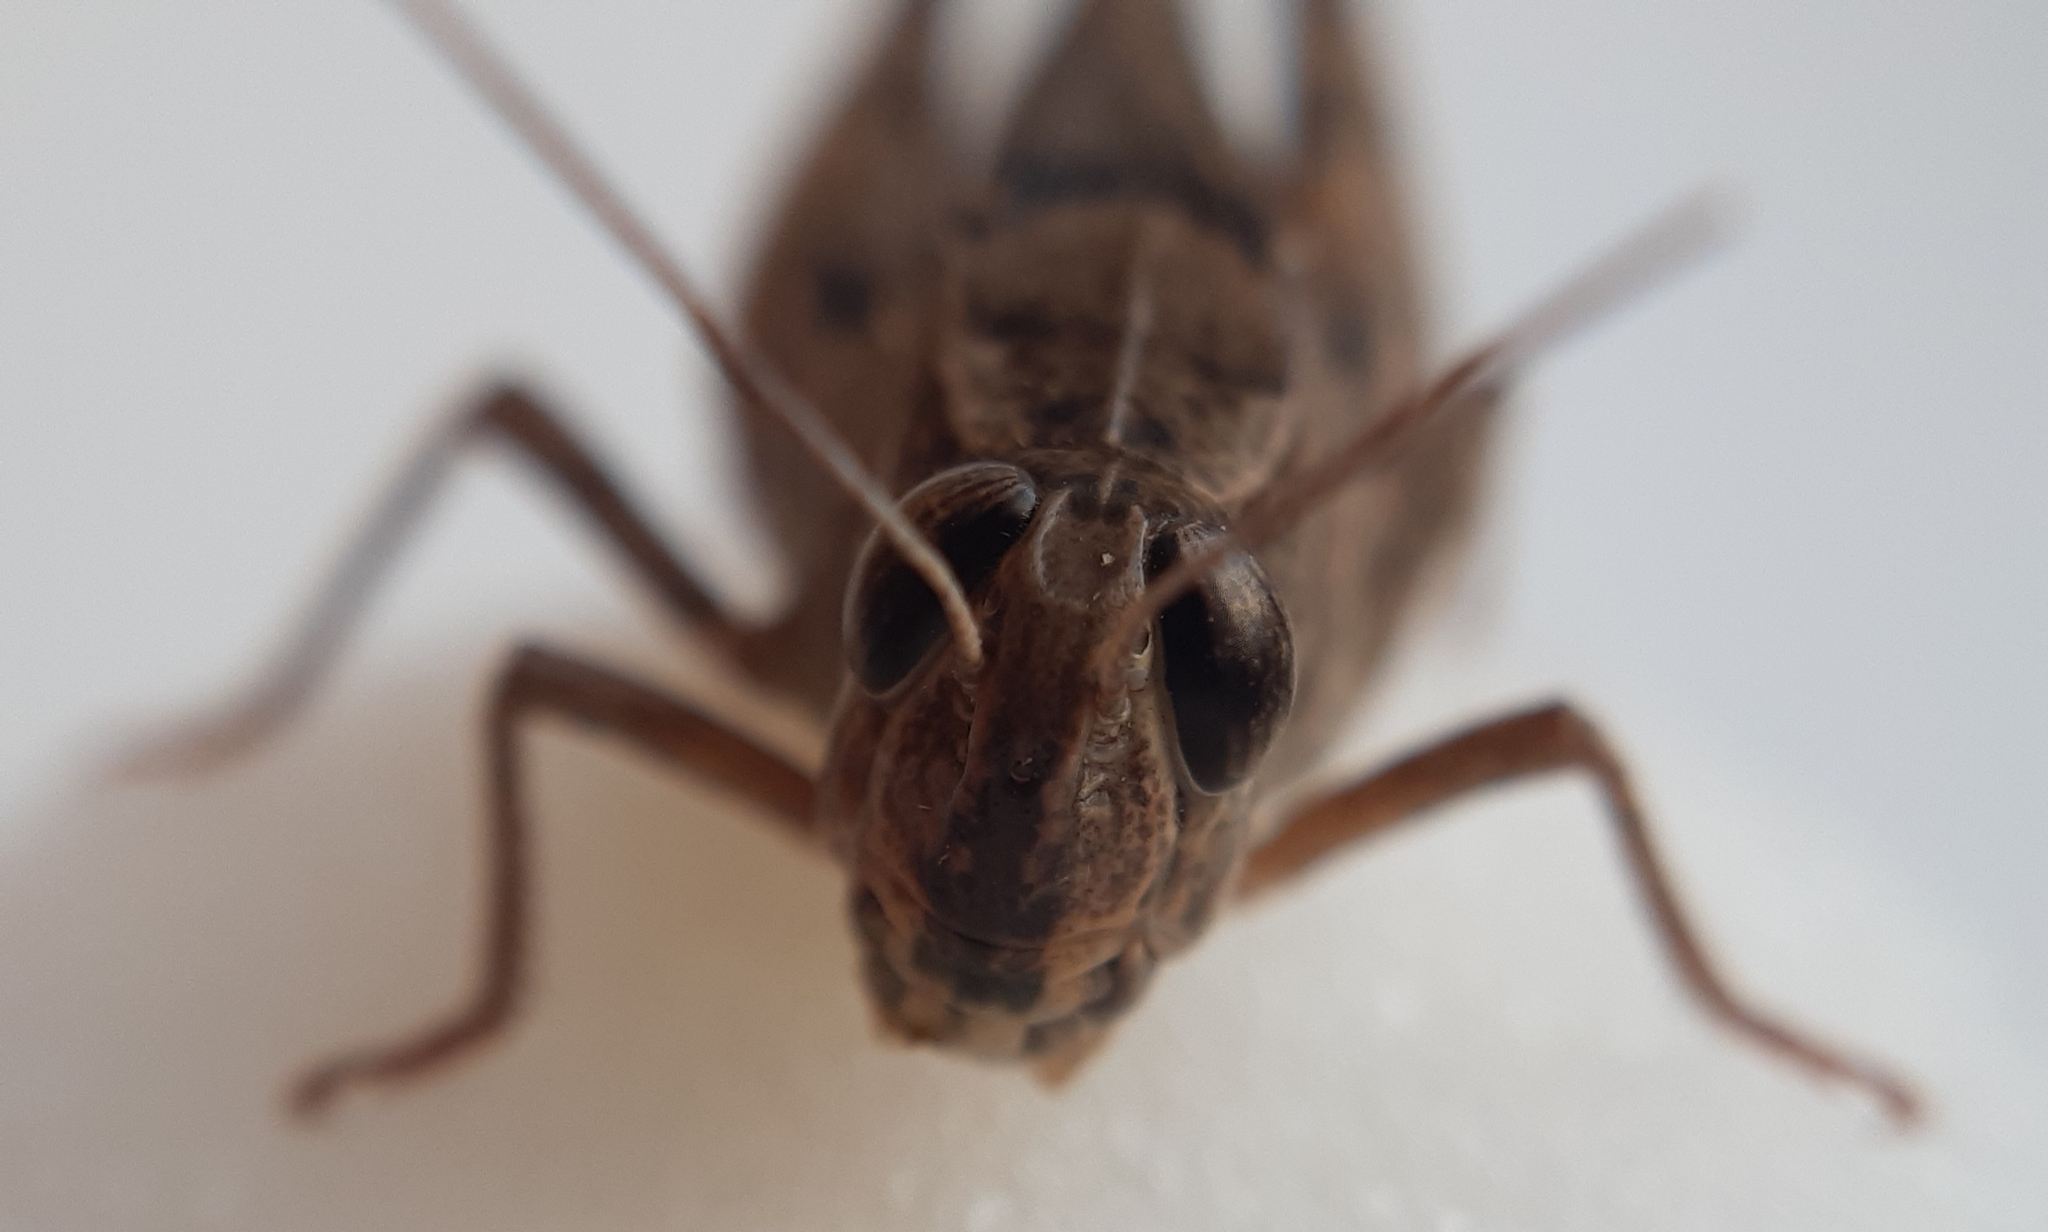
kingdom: Animalia
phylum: Arthropoda
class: Insecta
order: Orthoptera
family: Acrididae
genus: Calliptamus
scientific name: Calliptamus italicus
